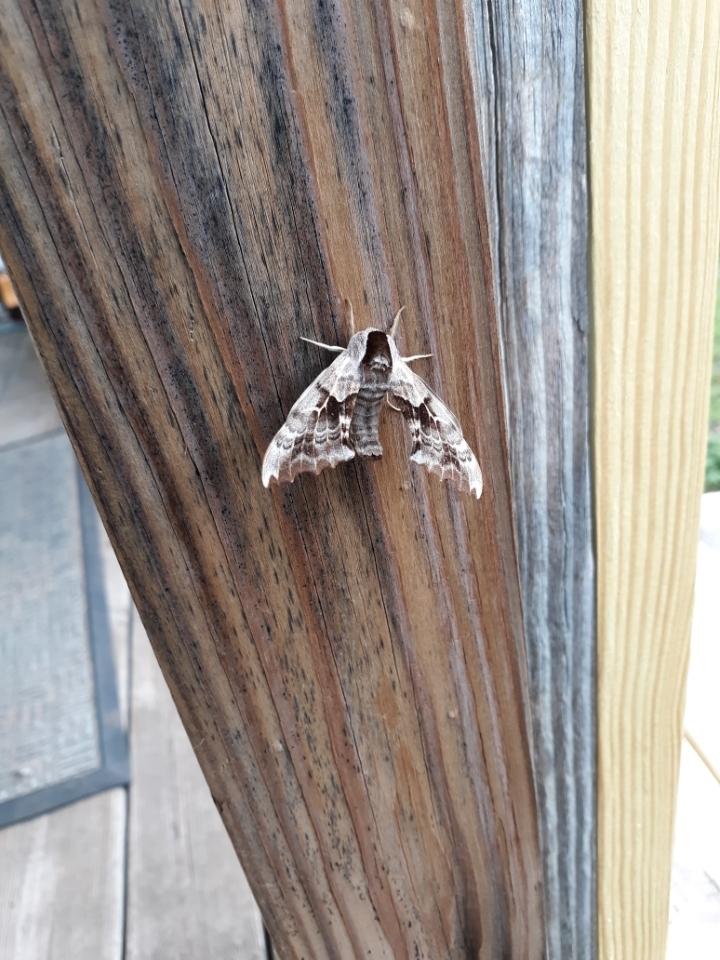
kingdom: Animalia
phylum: Arthropoda
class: Insecta
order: Lepidoptera
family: Sphingidae
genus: Smerinthus
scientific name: Smerinthus cerisyi
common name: Cerisy's sphinx moth
